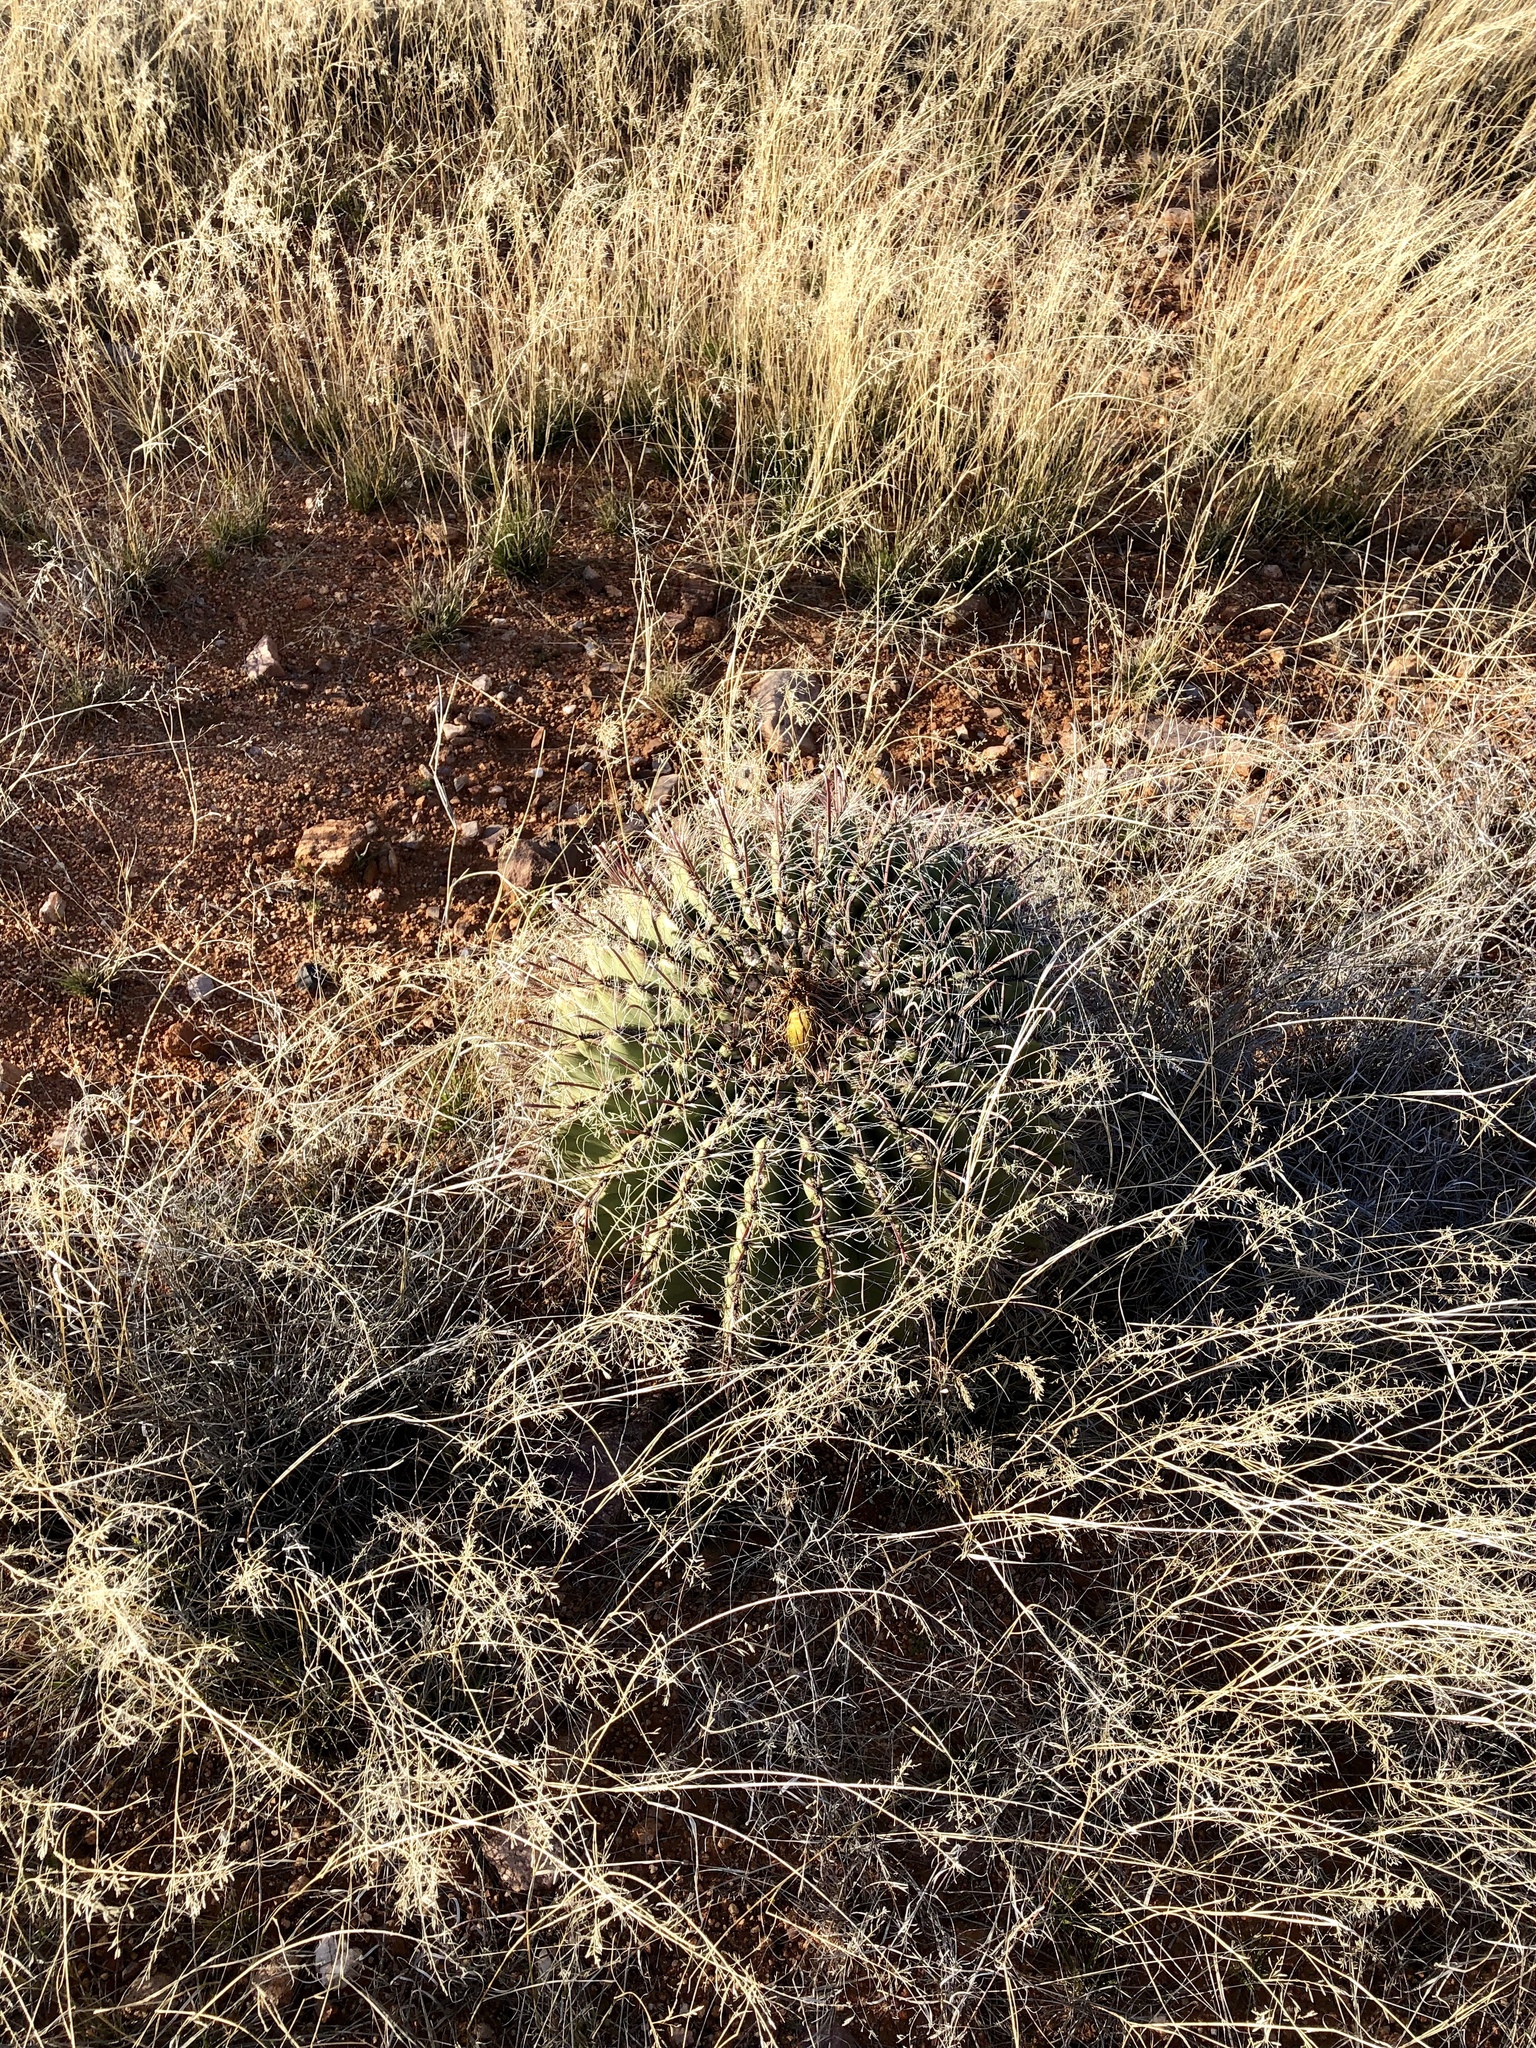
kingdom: Plantae
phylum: Tracheophyta
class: Magnoliopsida
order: Caryophyllales
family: Cactaceae
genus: Ferocactus
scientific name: Ferocactus wislizeni
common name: Candy barrel cactus
